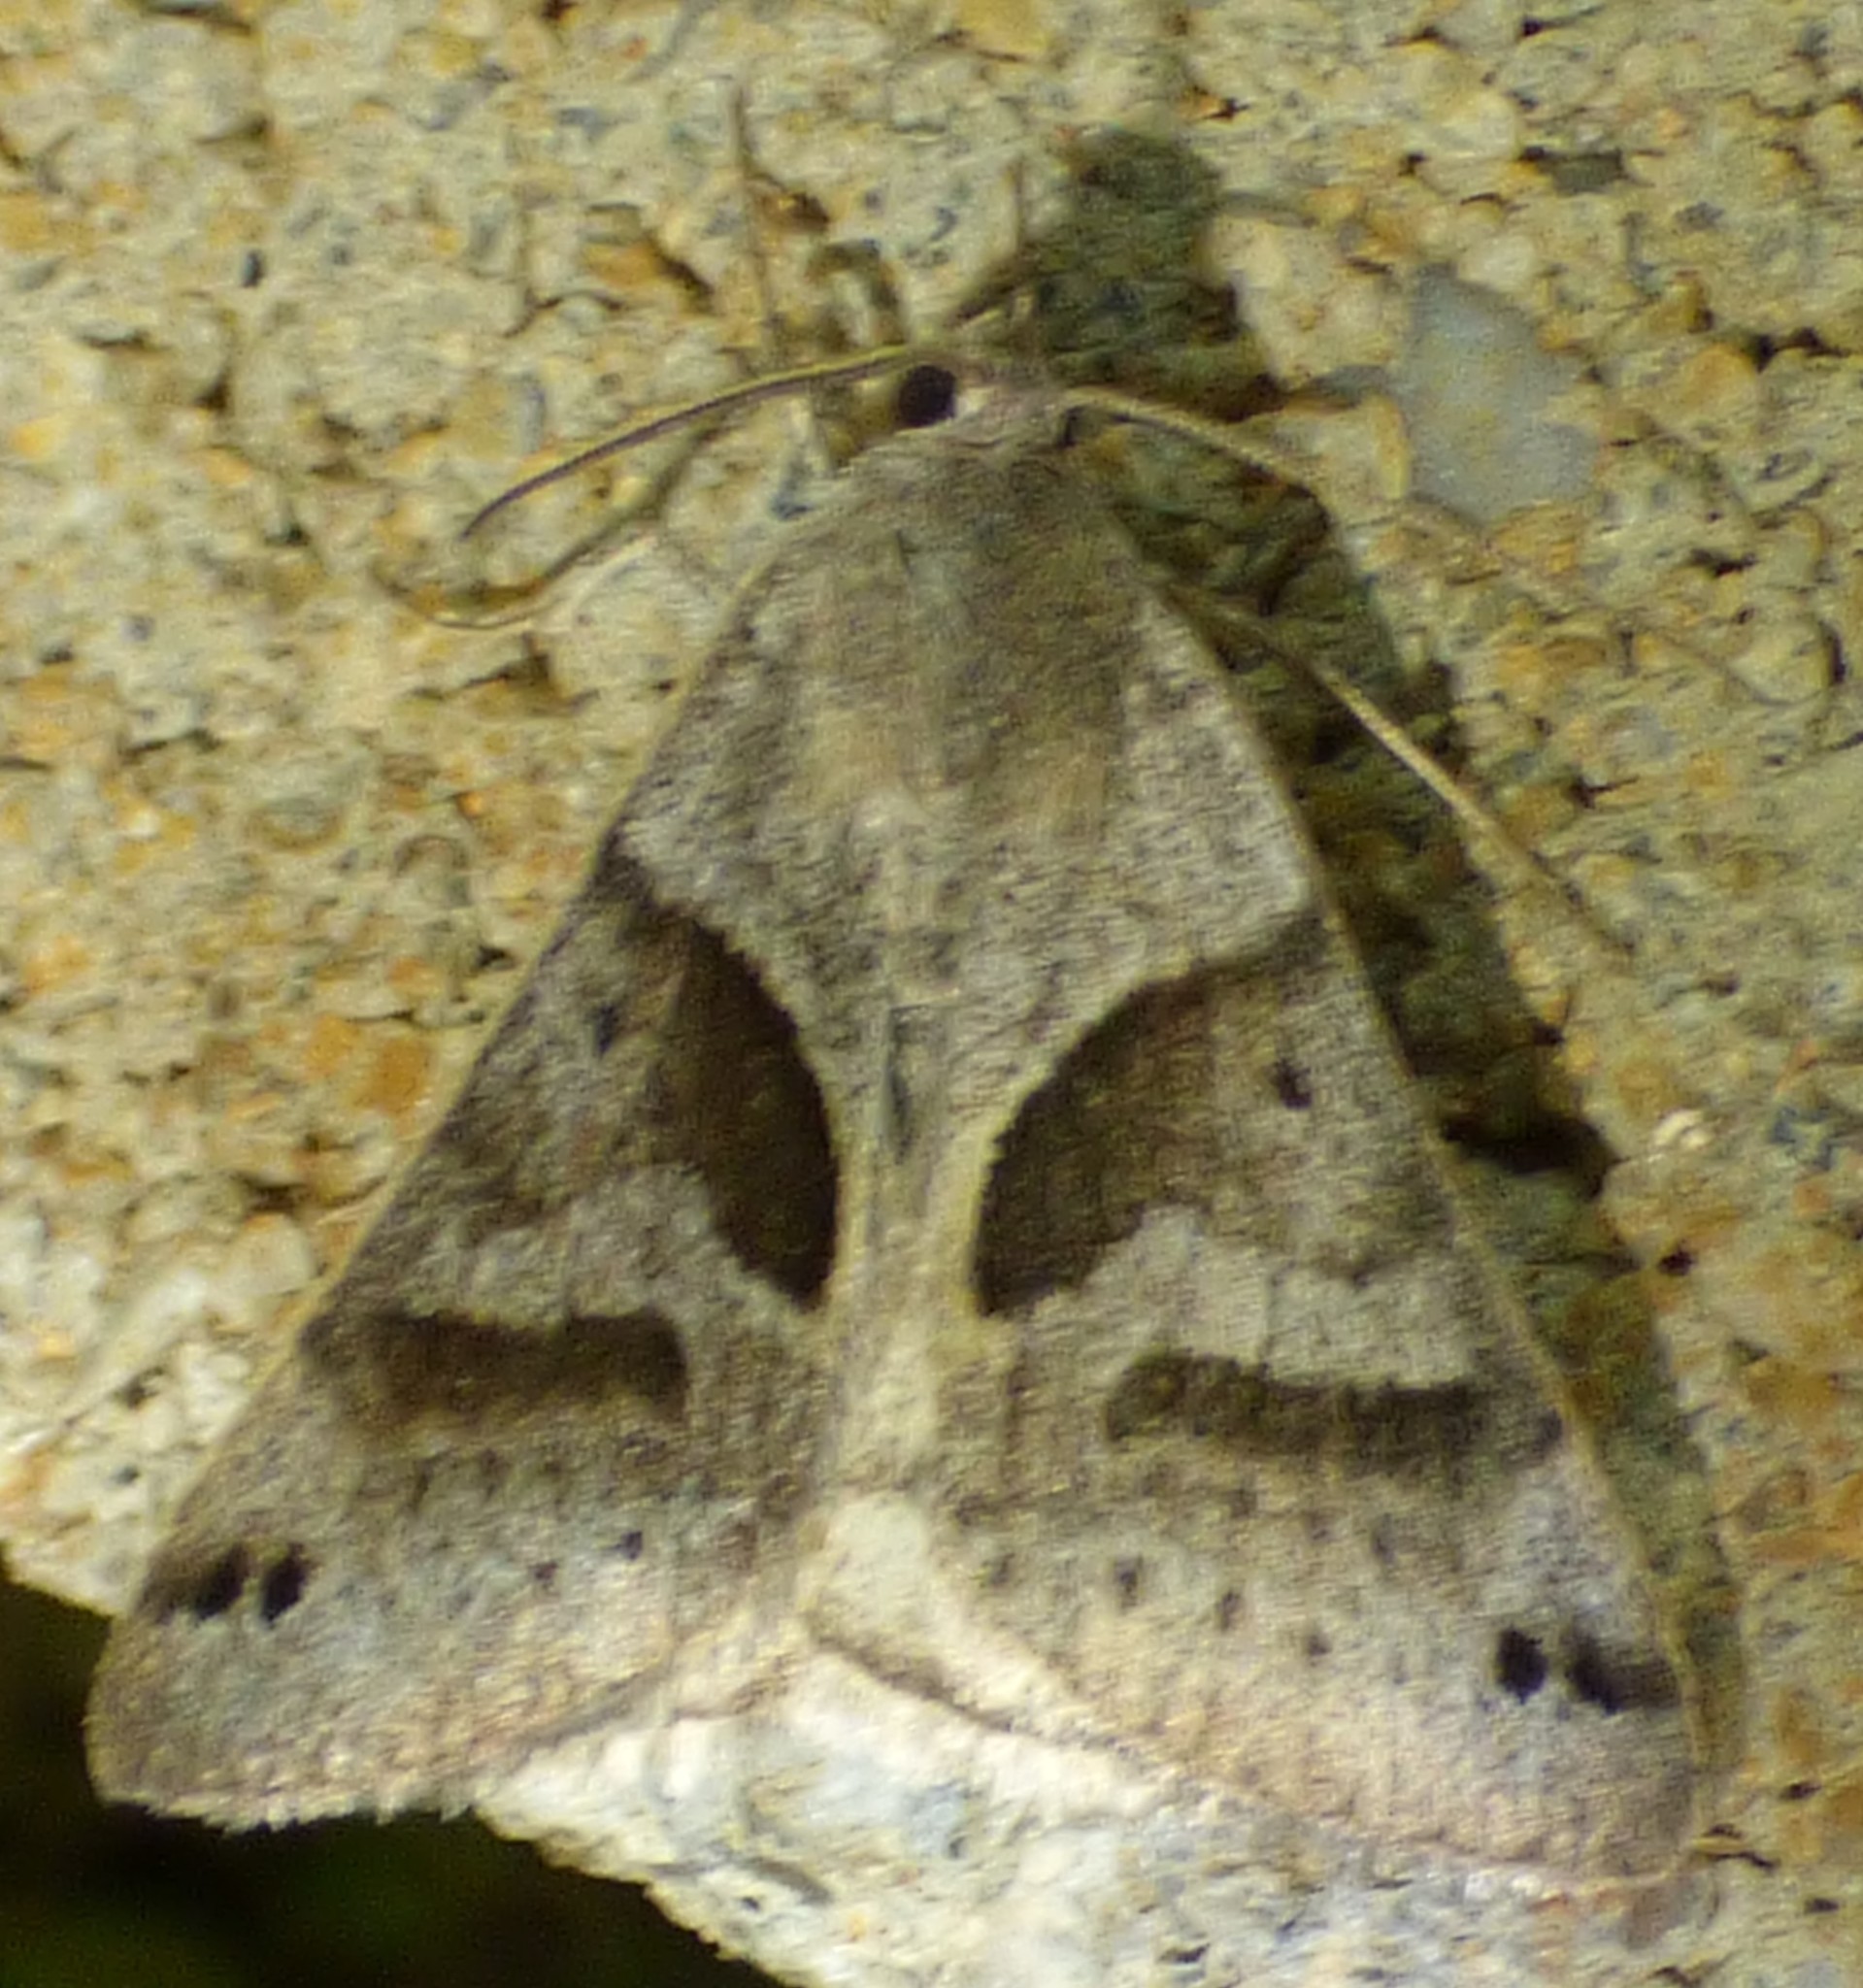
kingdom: Animalia
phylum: Arthropoda
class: Insecta
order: Lepidoptera
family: Erebidae
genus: Caenurgina
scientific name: Caenurgina erechtea
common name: Forage looper moth
